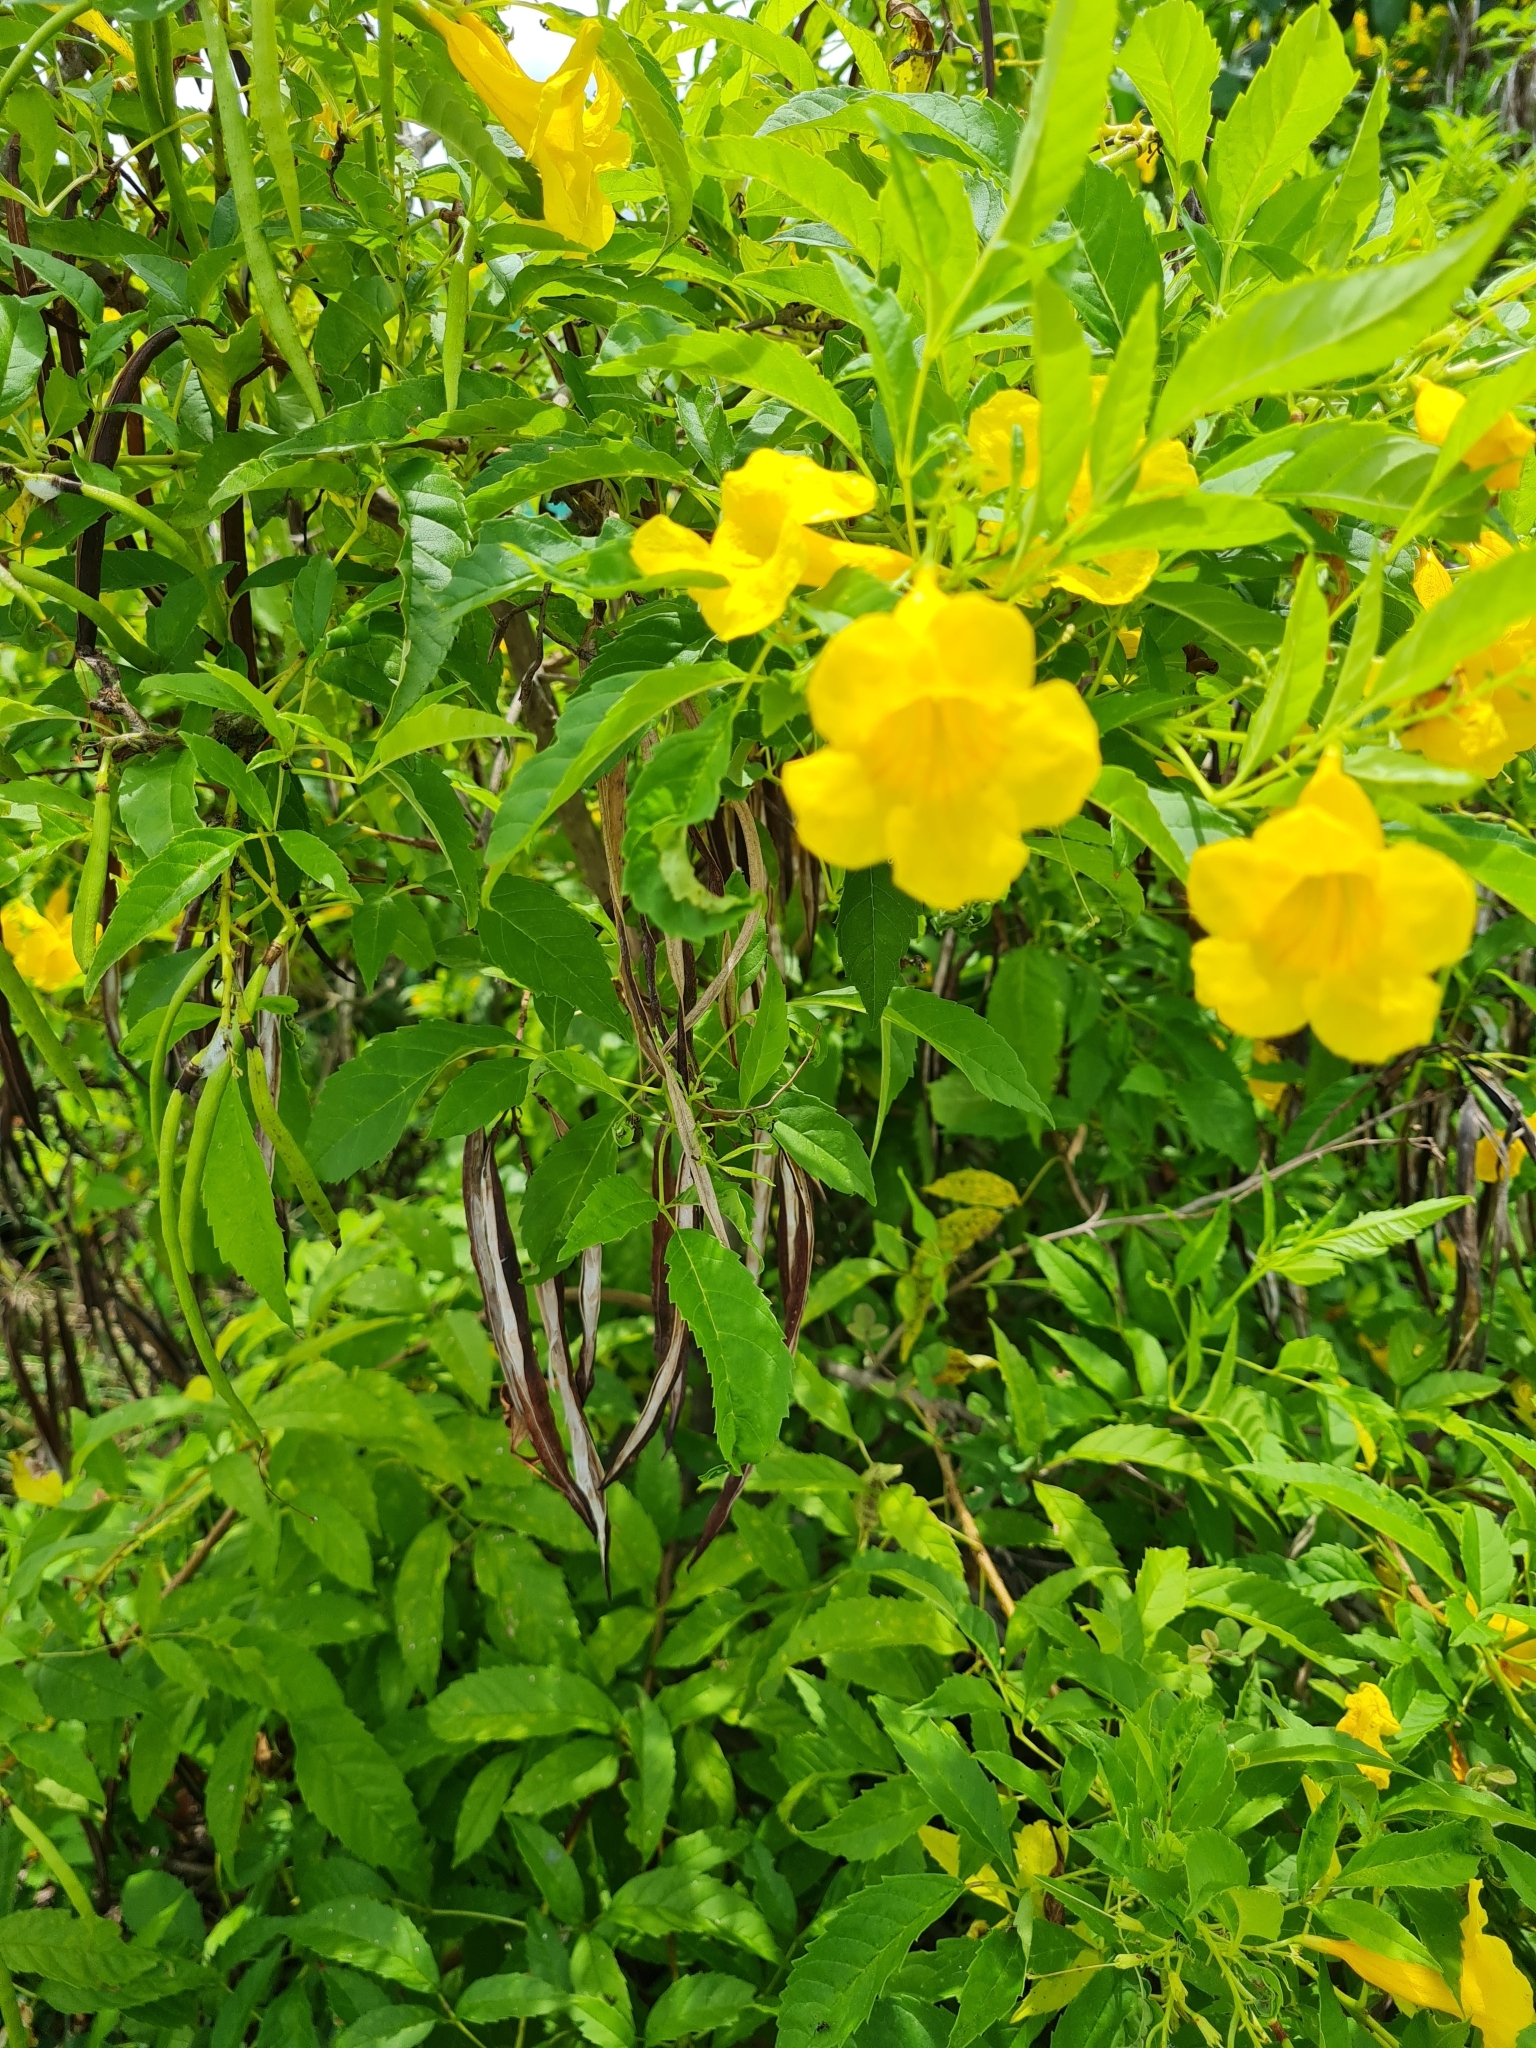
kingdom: Plantae
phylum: Tracheophyta
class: Magnoliopsida
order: Lamiales
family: Bignoniaceae
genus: Tecoma
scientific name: Tecoma stans
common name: Yellow trumpetbush
